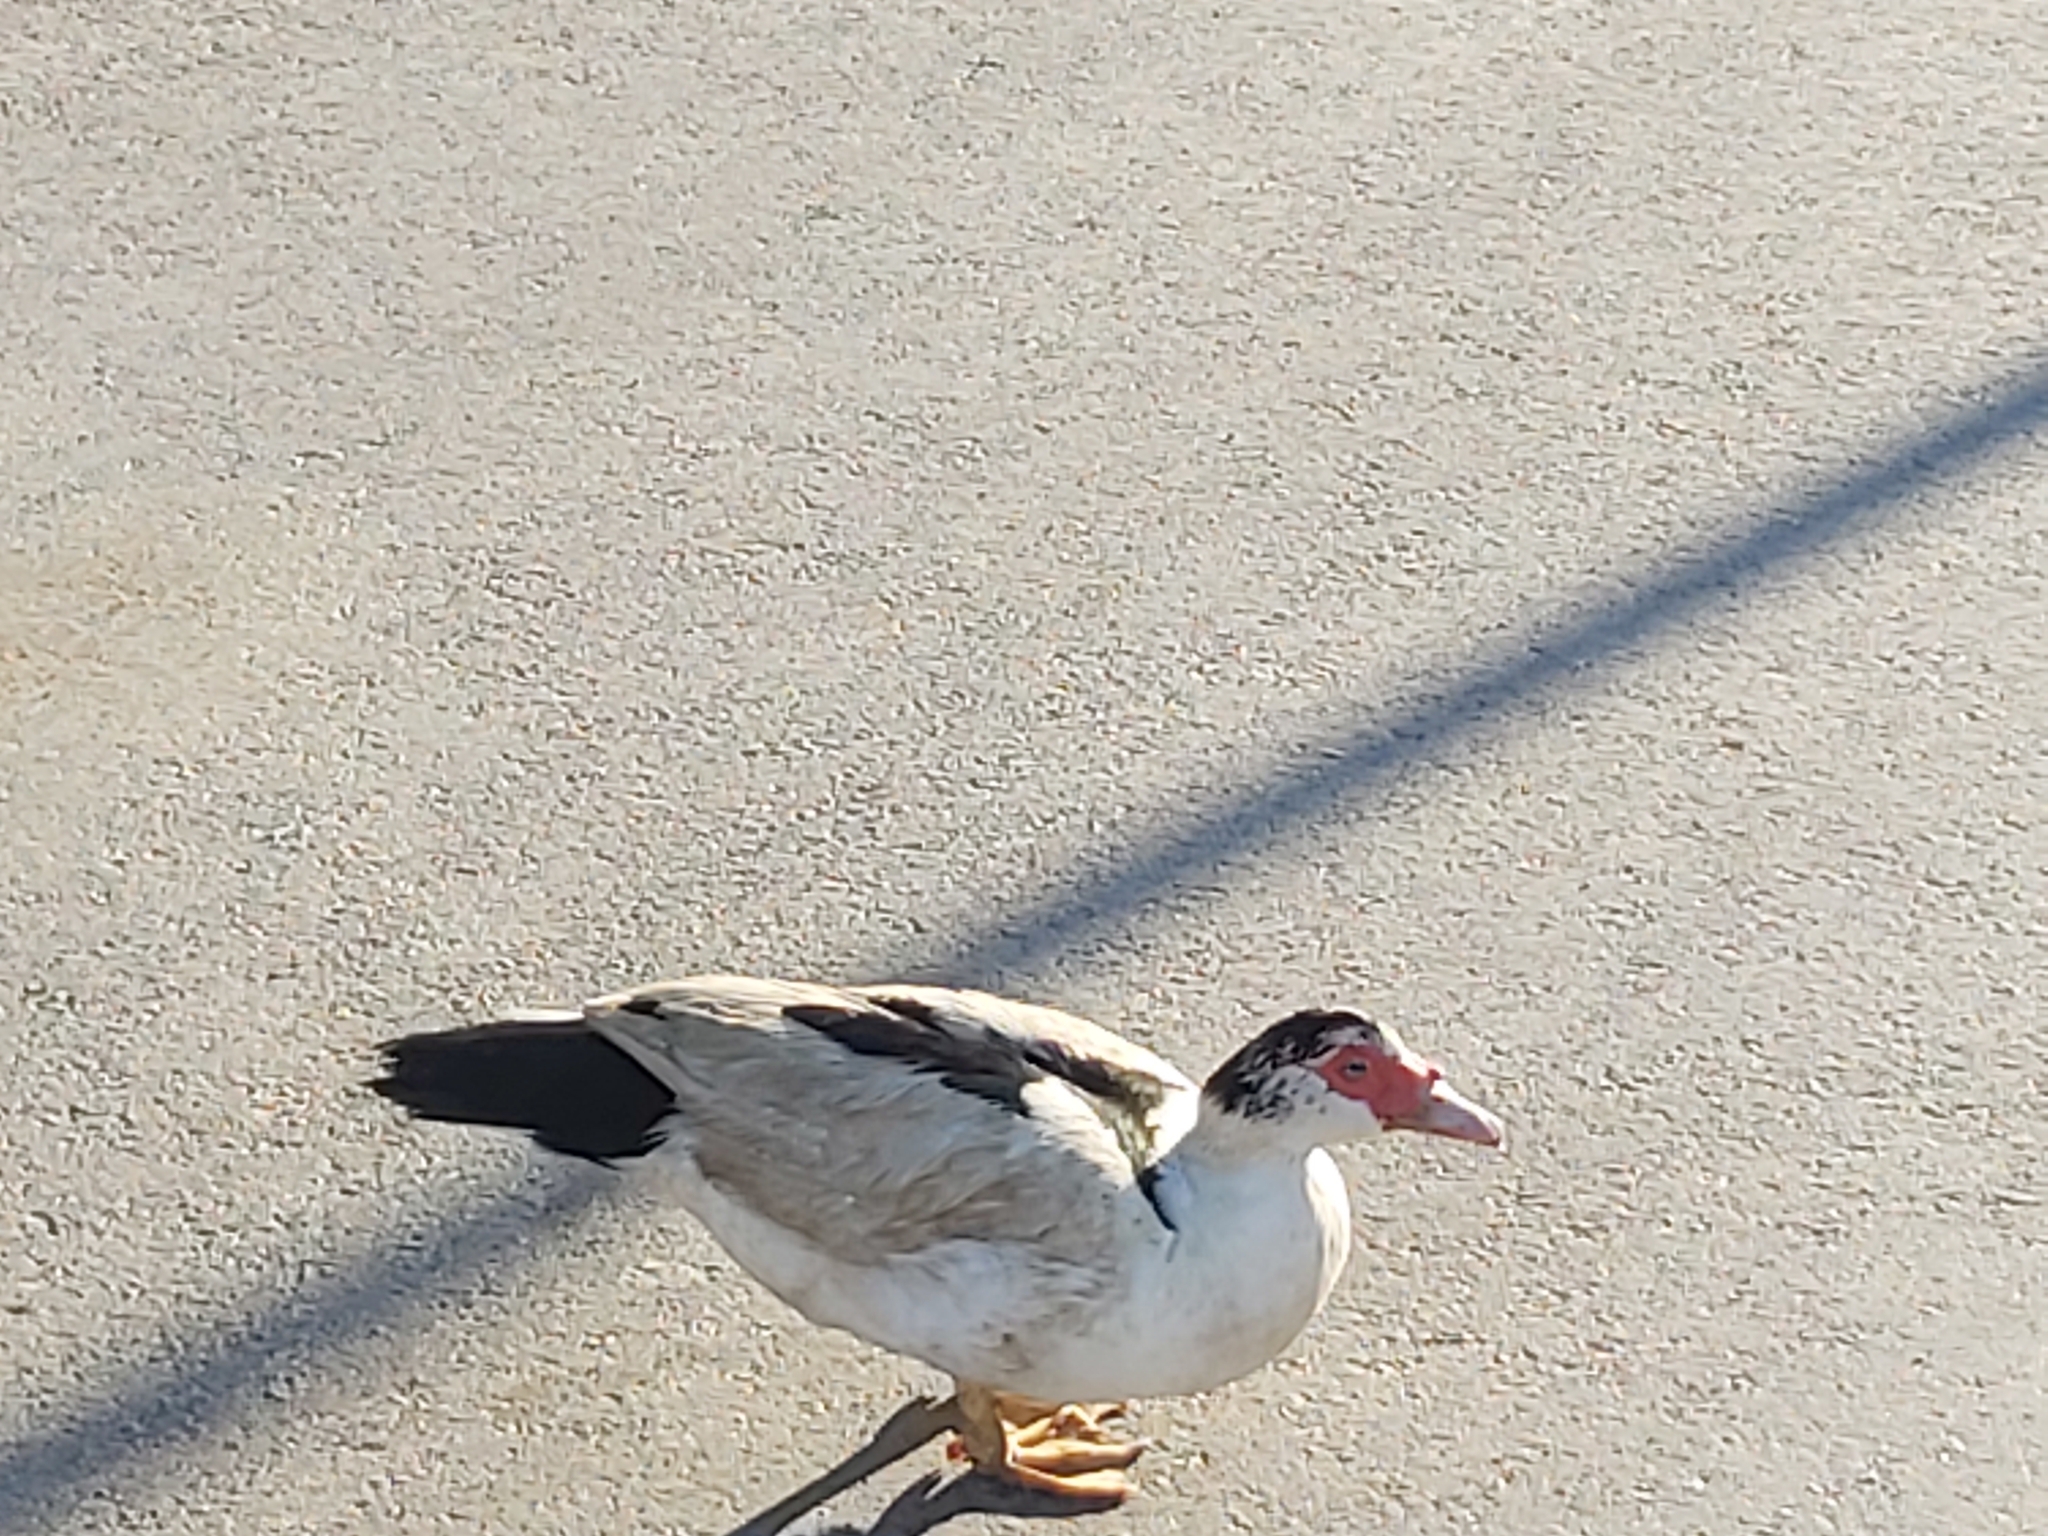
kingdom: Animalia
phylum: Chordata
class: Aves
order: Anseriformes
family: Anatidae
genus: Cairina
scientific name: Cairina moschata
